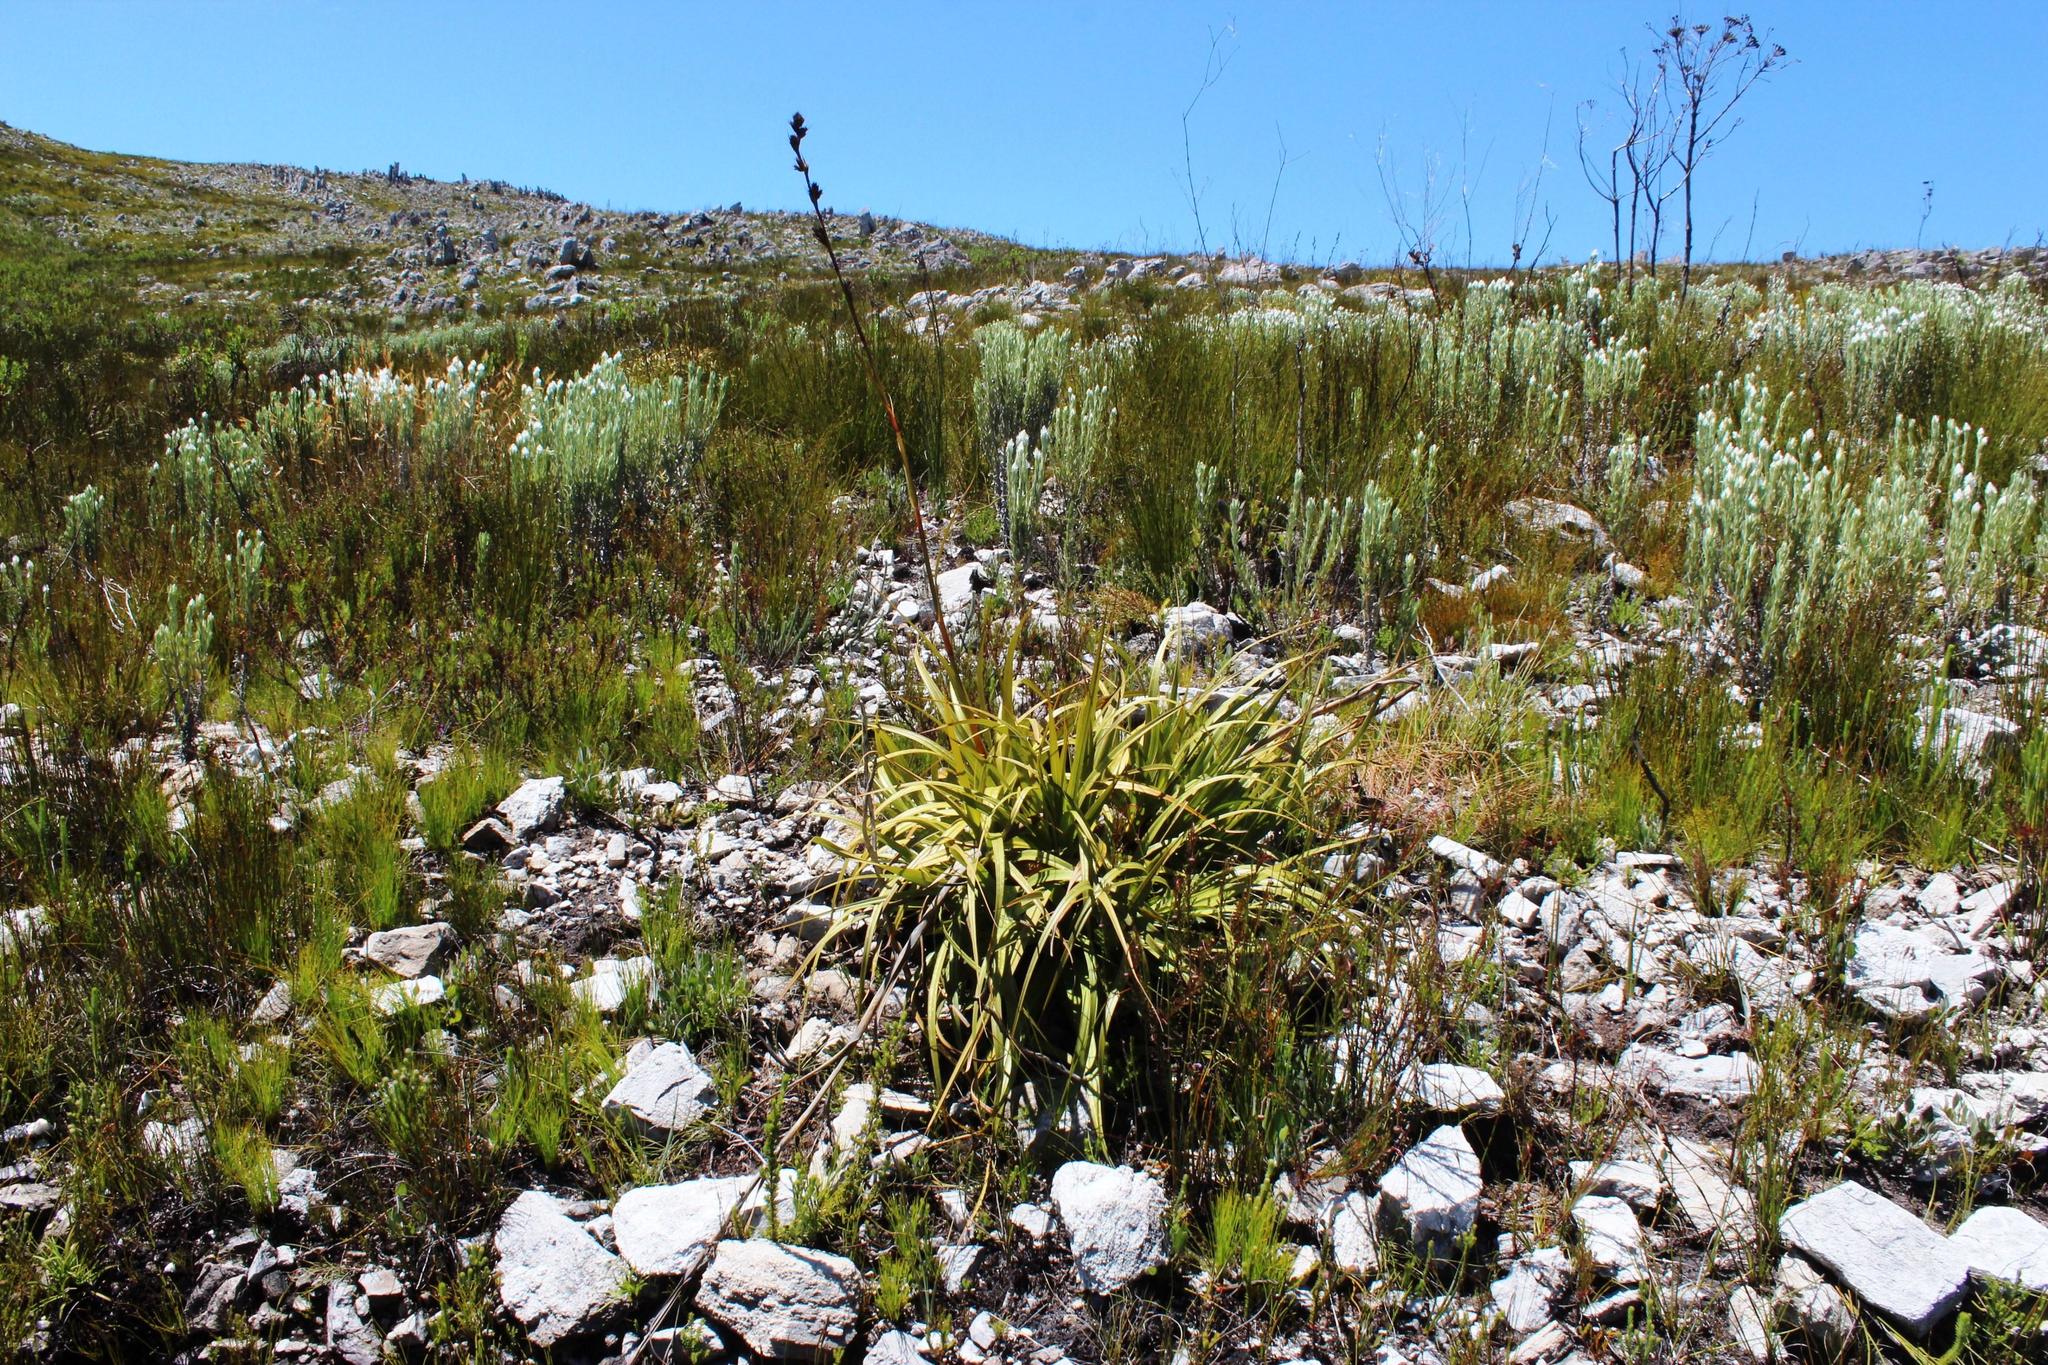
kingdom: Plantae
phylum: Tracheophyta
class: Liliopsida
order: Poales
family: Cyperaceae
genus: Tetraria
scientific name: Tetraria thermalis
